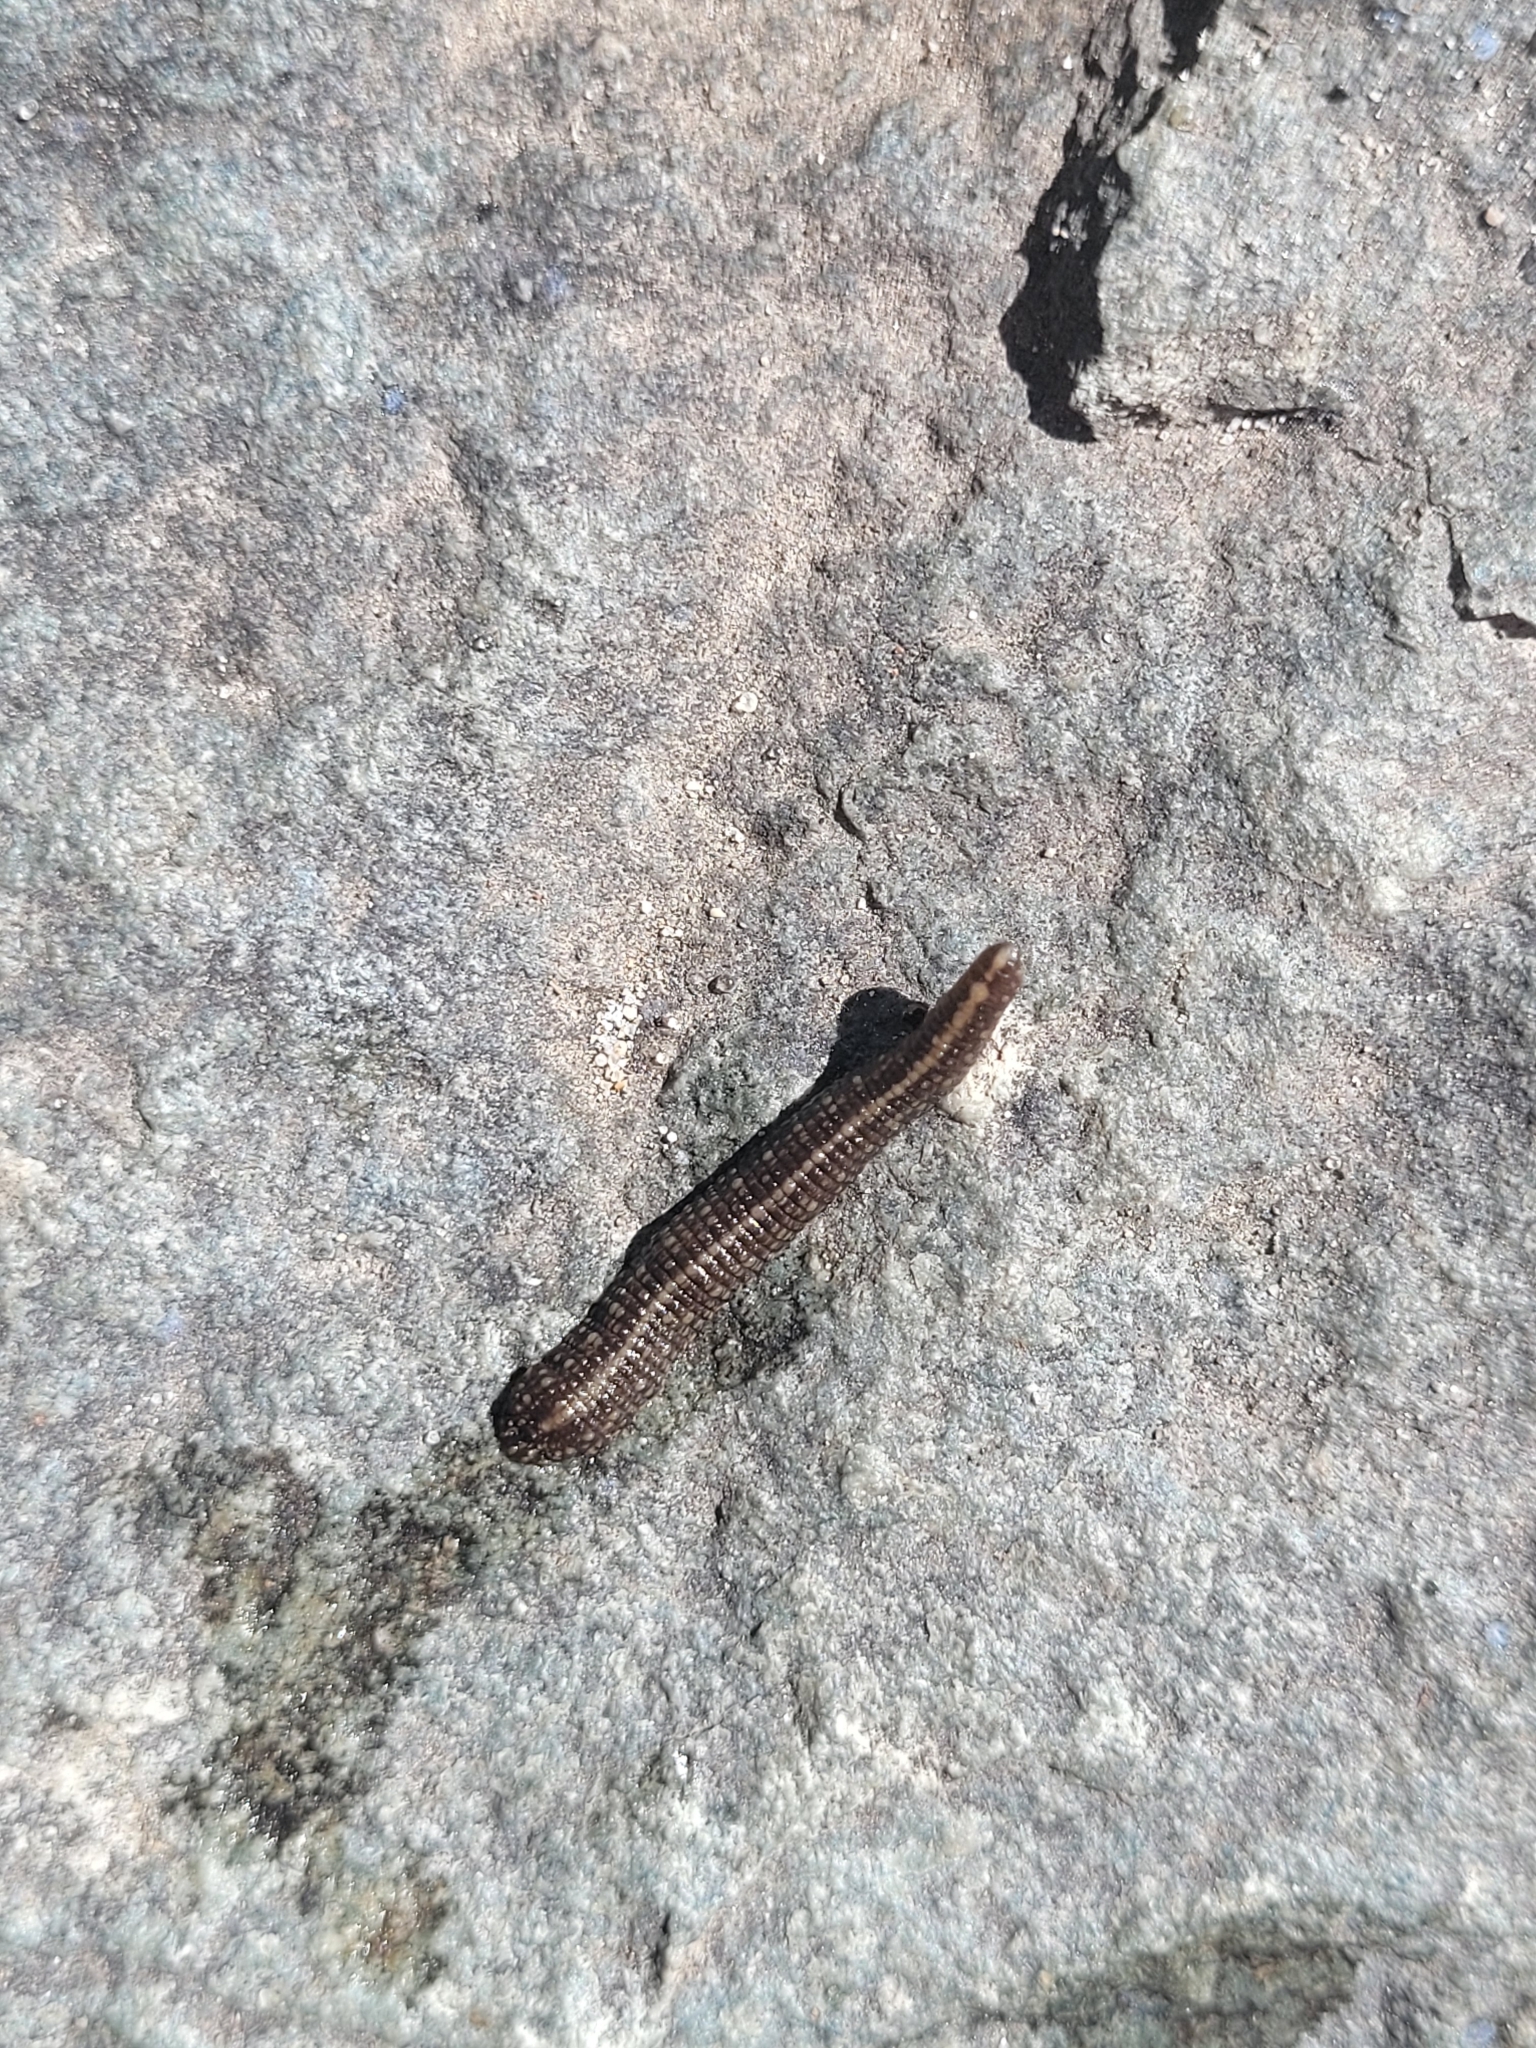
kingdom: Animalia
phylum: Annelida
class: Clitellata
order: Rhynchobdellida
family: Glossiphoniidae
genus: Placobdella
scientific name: Placobdella parasitica
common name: Smooth turtle leech
